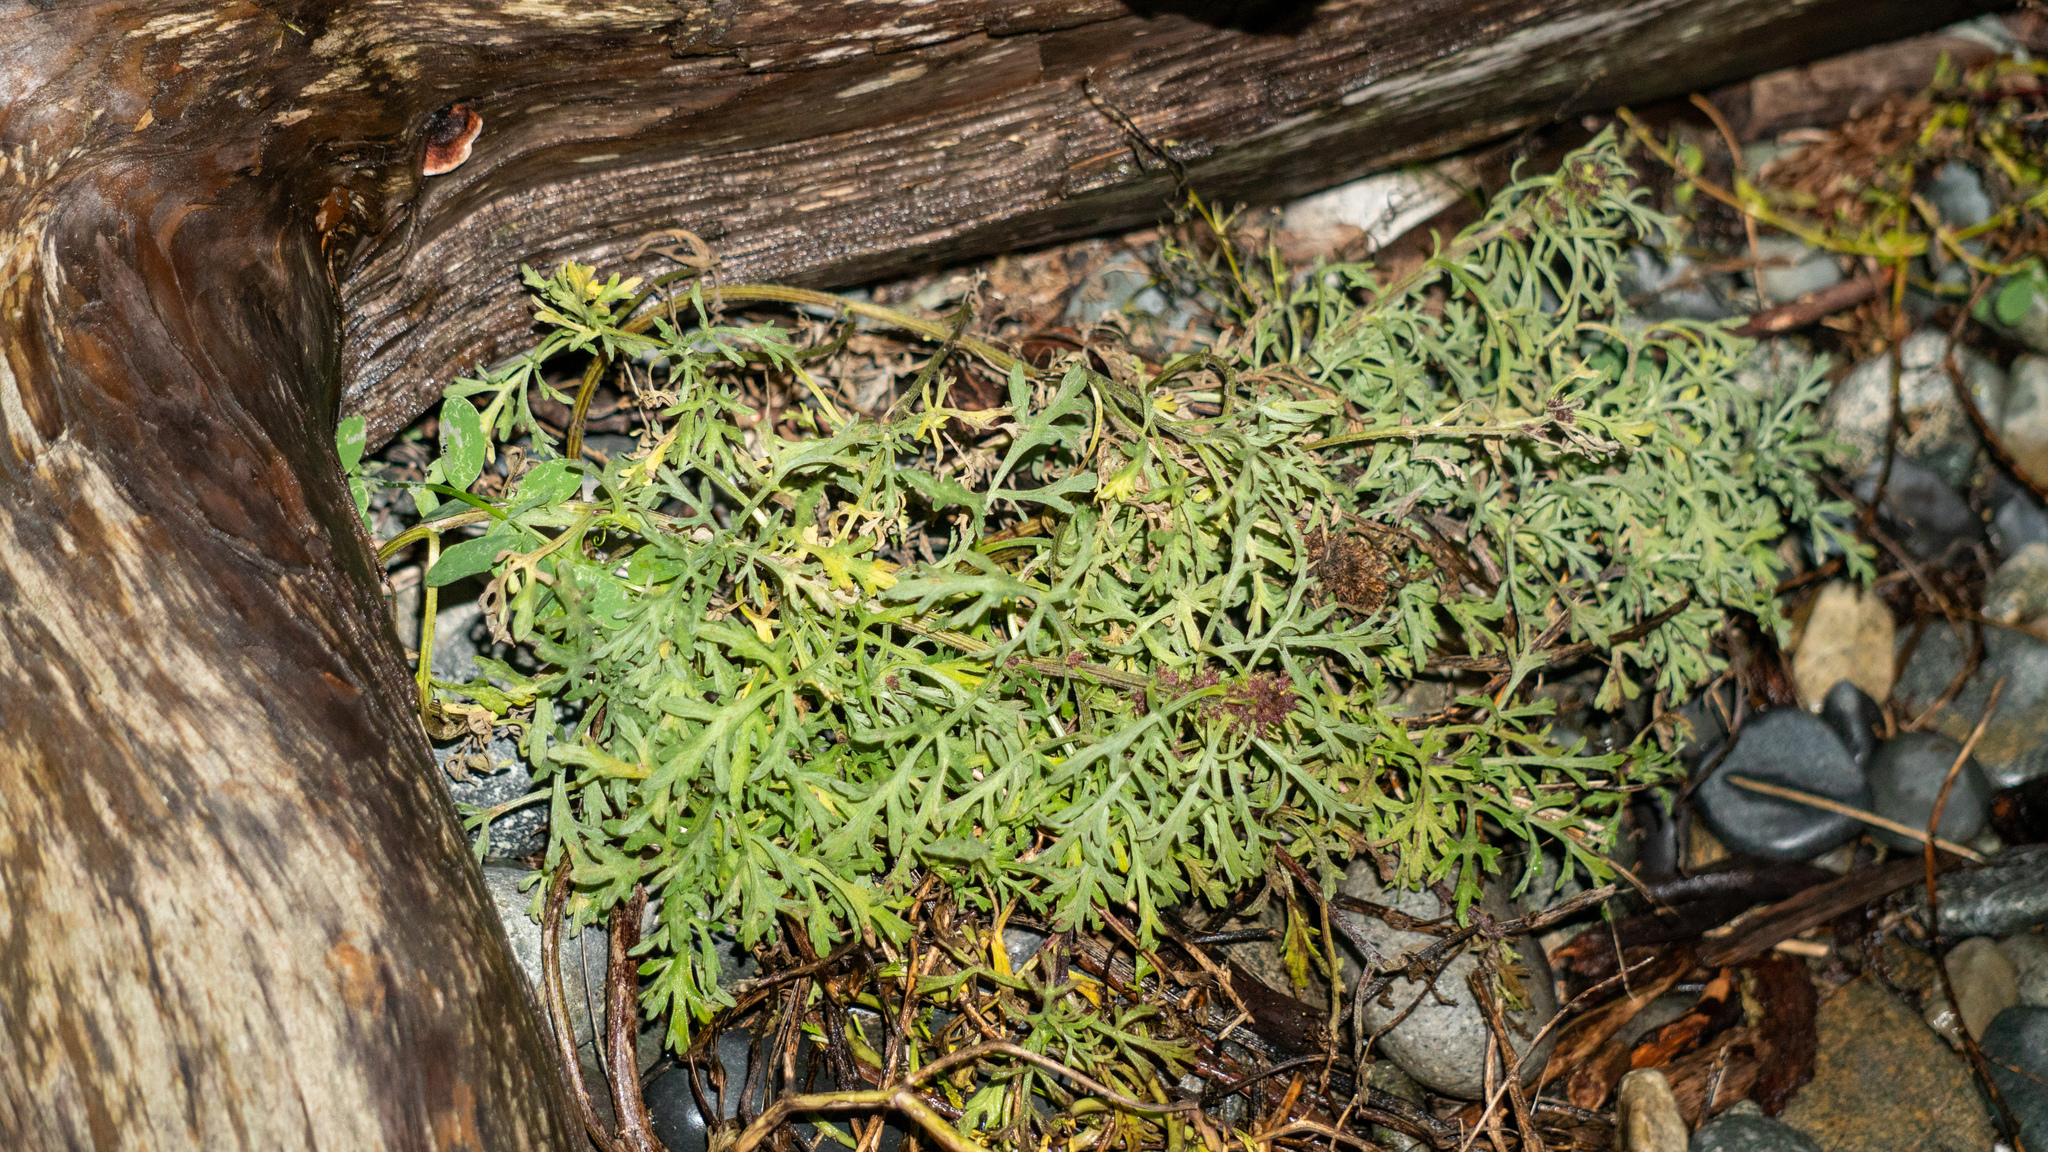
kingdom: Plantae
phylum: Tracheophyta
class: Magnoliopsida
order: Asterales
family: Asteraceae
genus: Ambrosia
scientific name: Ambrosia chamissonis
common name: Beachbur
